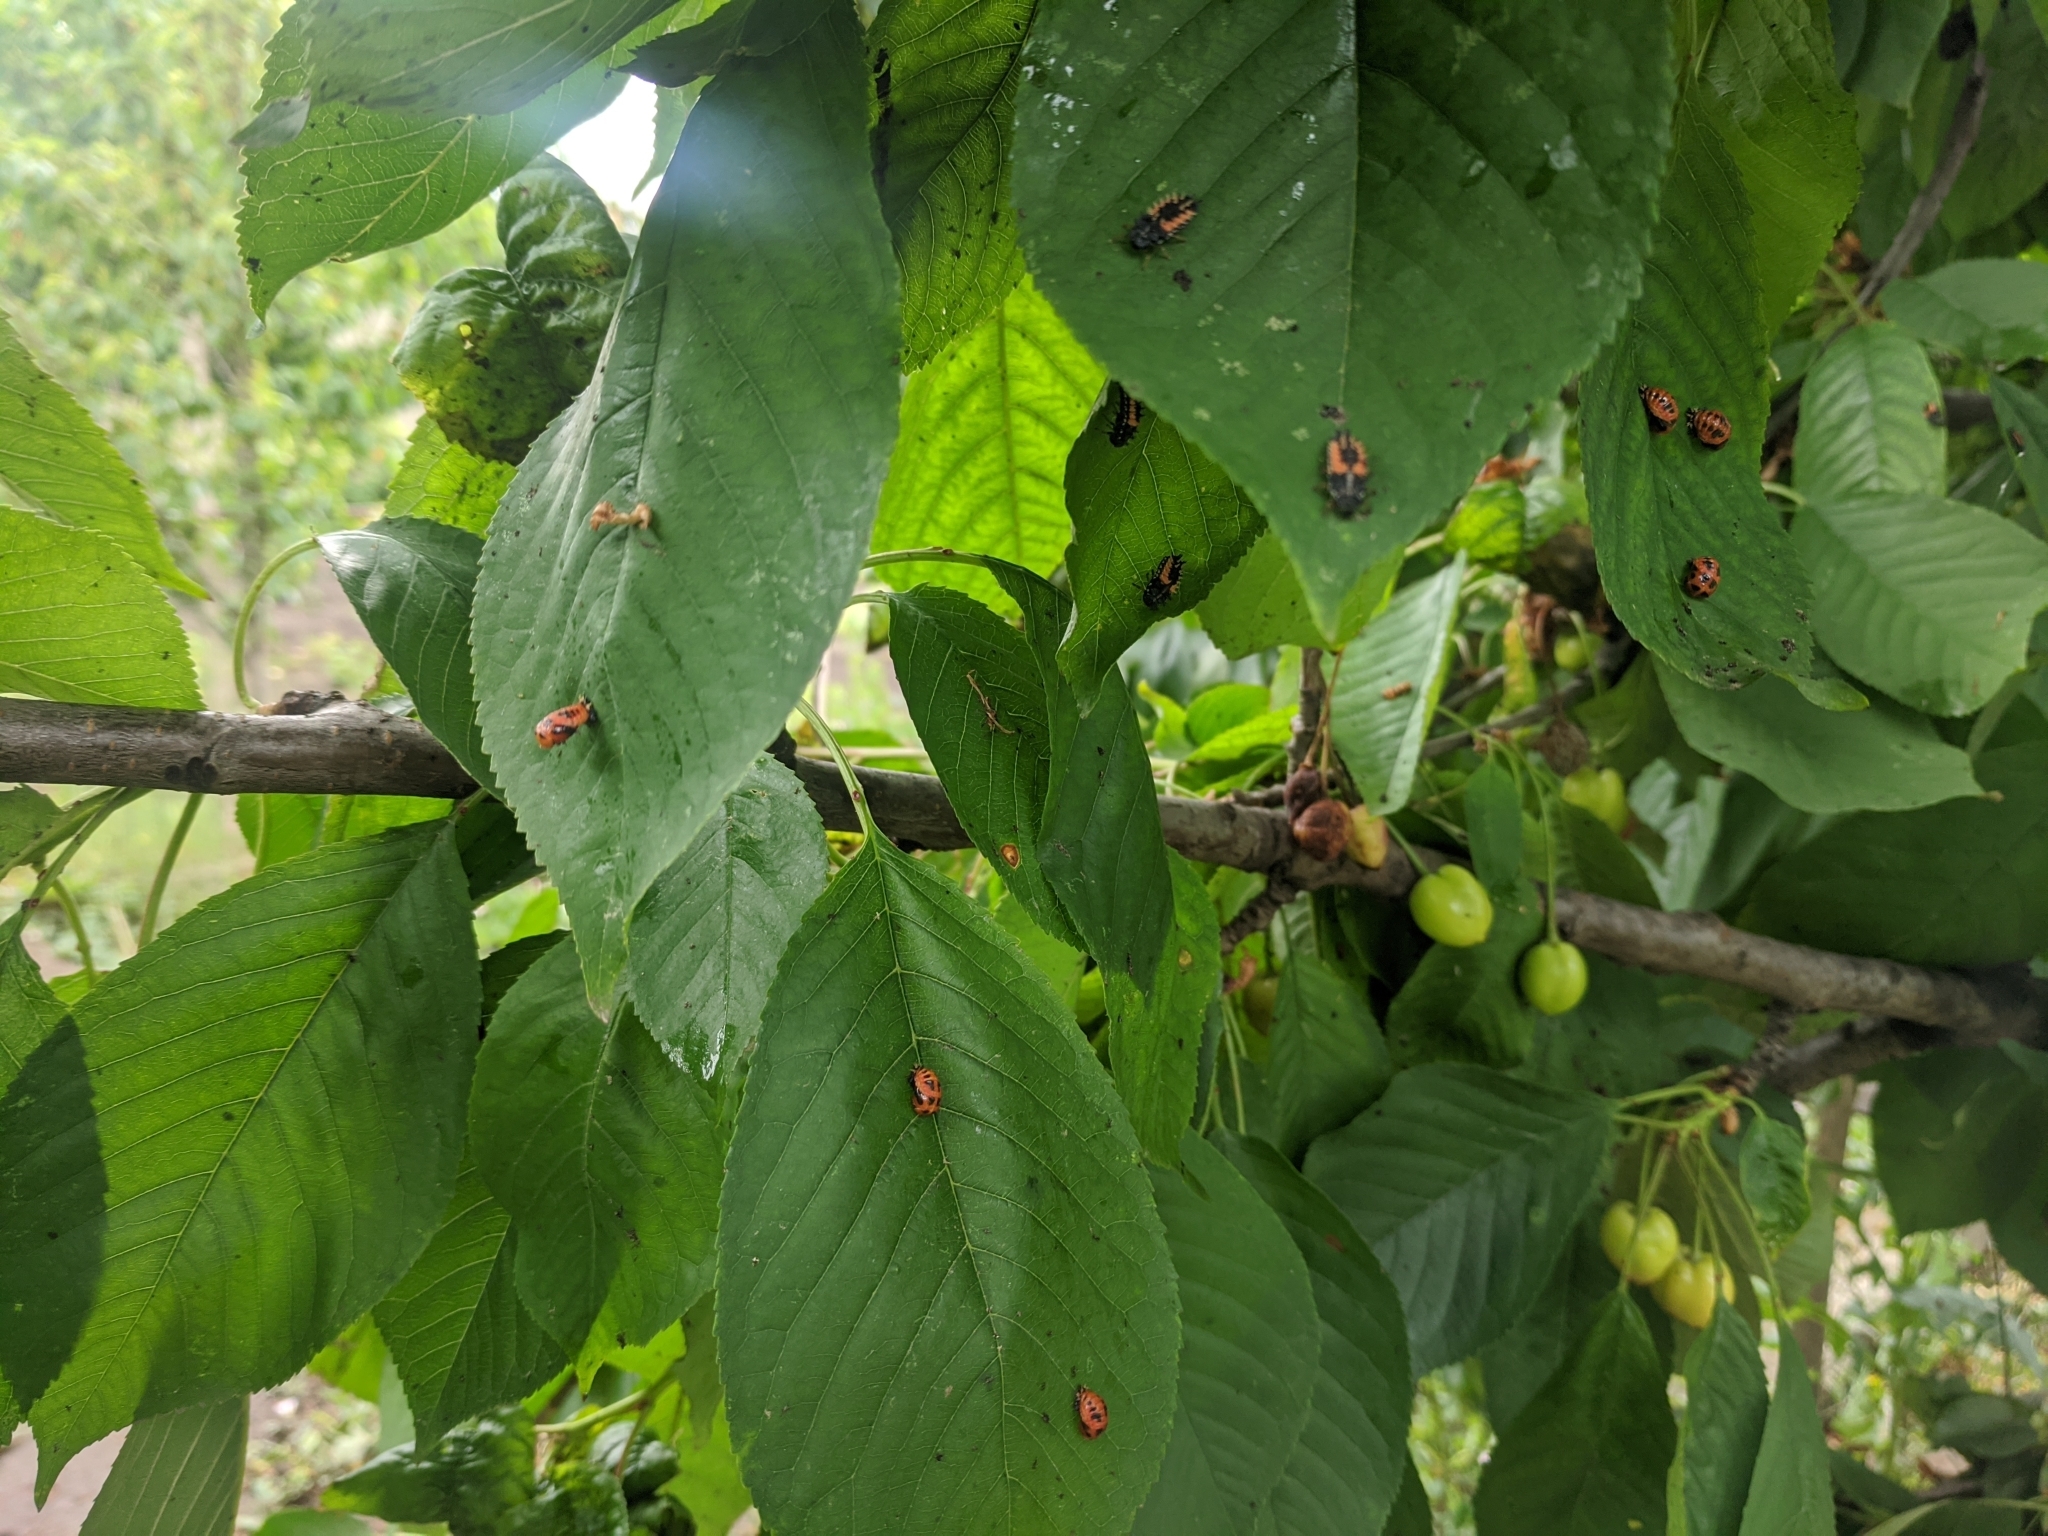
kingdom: Animalia
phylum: Arthropoda
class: Insecta
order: Coleoptera
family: Coccinellidae
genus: Harmonia
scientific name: Harmonia axyridis
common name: Harlequin ladybird
